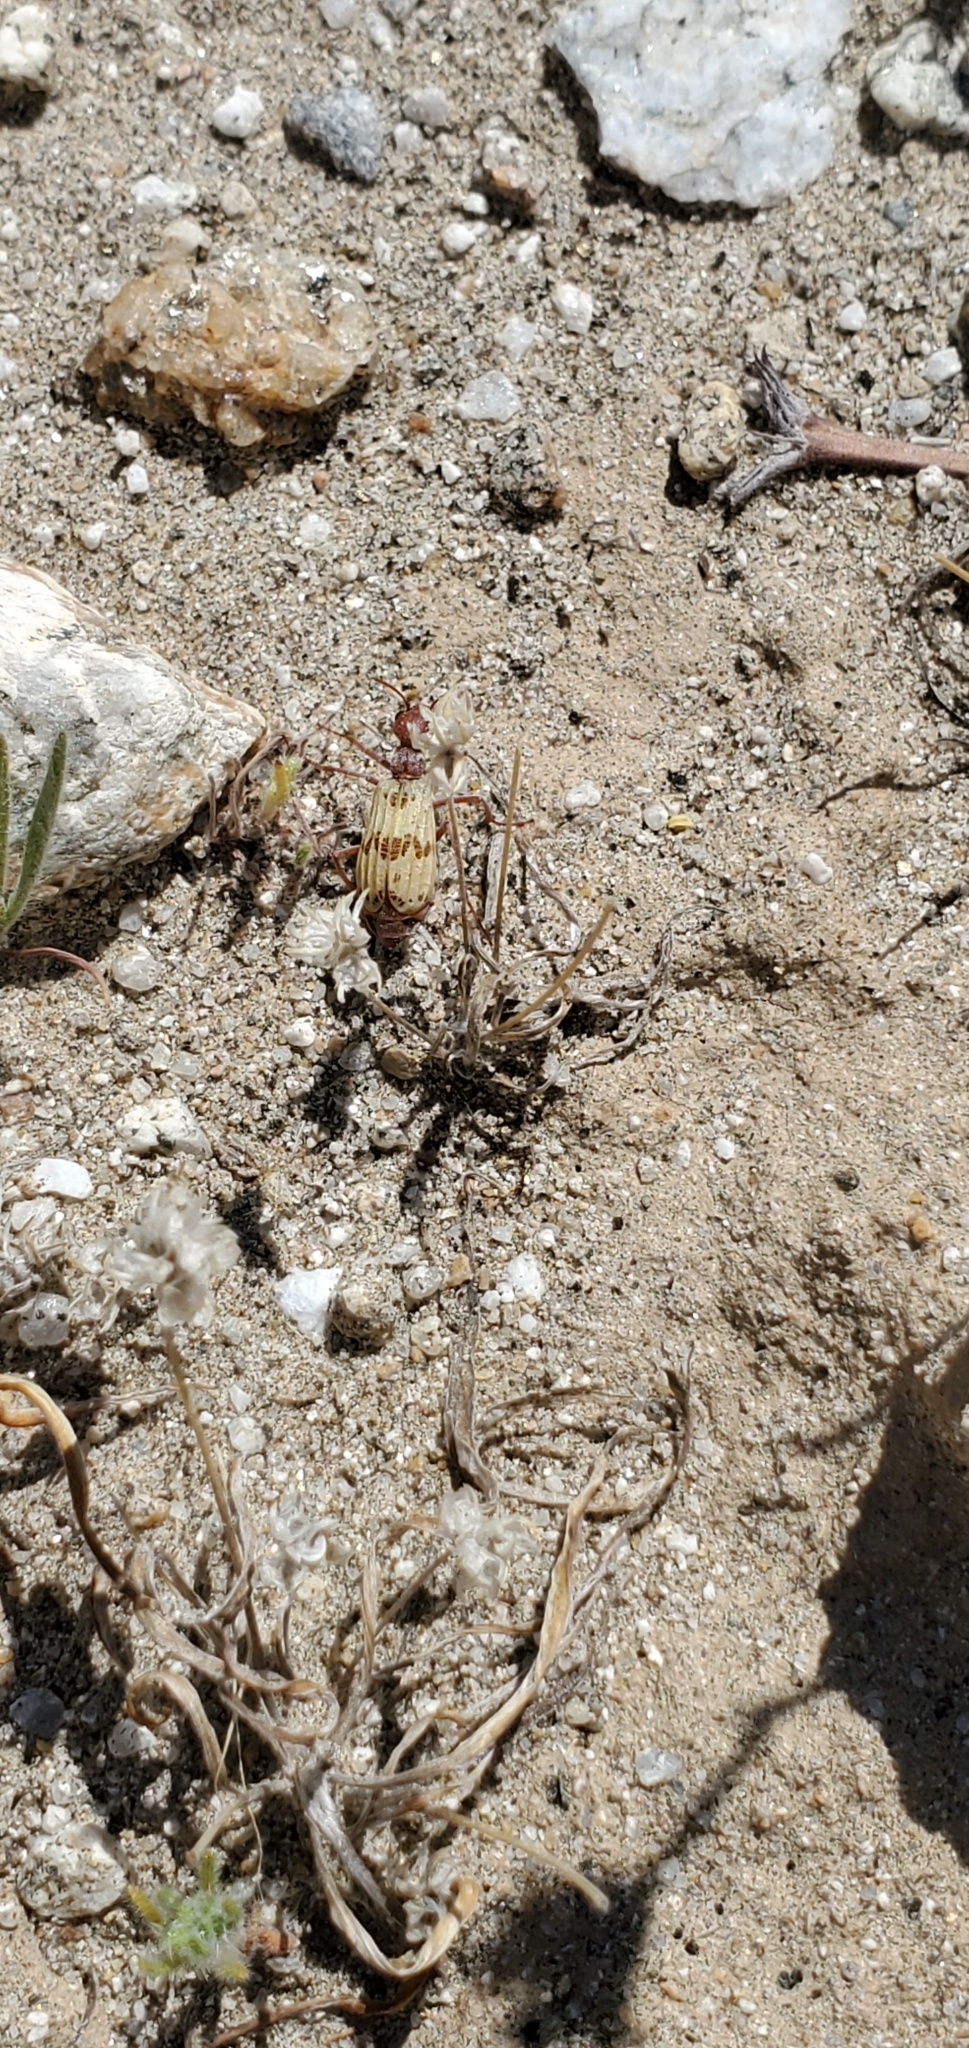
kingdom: Animalia
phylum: Arthropoda
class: Insecta
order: Coleoptera
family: Meloidae
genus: Pleuropasta
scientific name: Pleuropasta mirabilis
